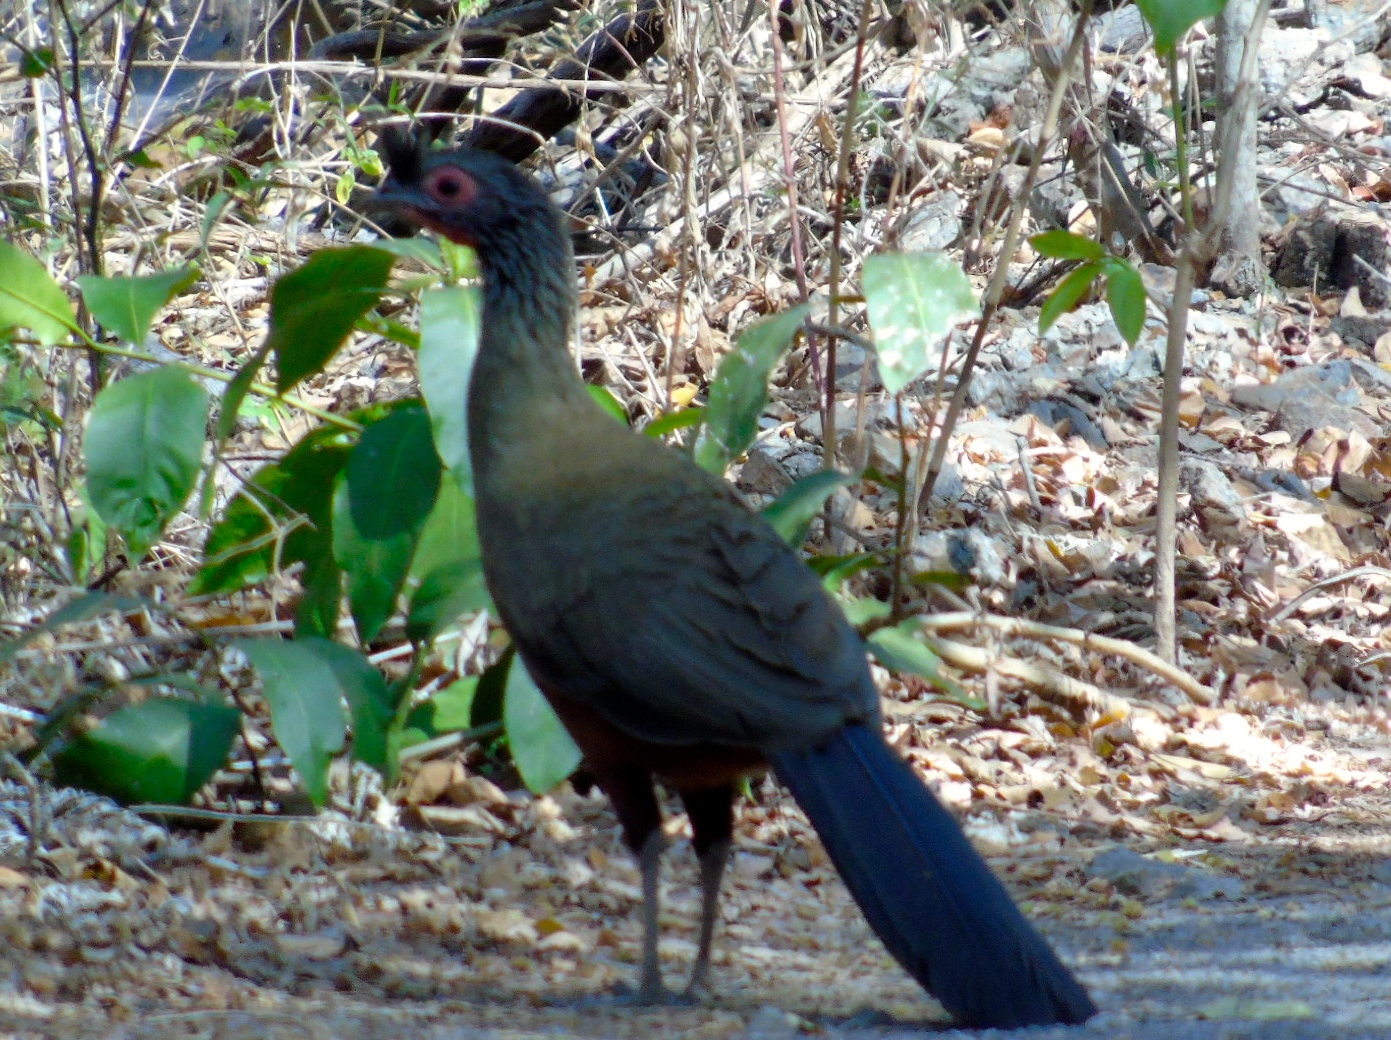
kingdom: Animalia
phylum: Chordata
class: Aves
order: Galliformes
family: Cracidae
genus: Ortalis
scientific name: Ortalis wagleri
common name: Rufous-bellied chachalaca
